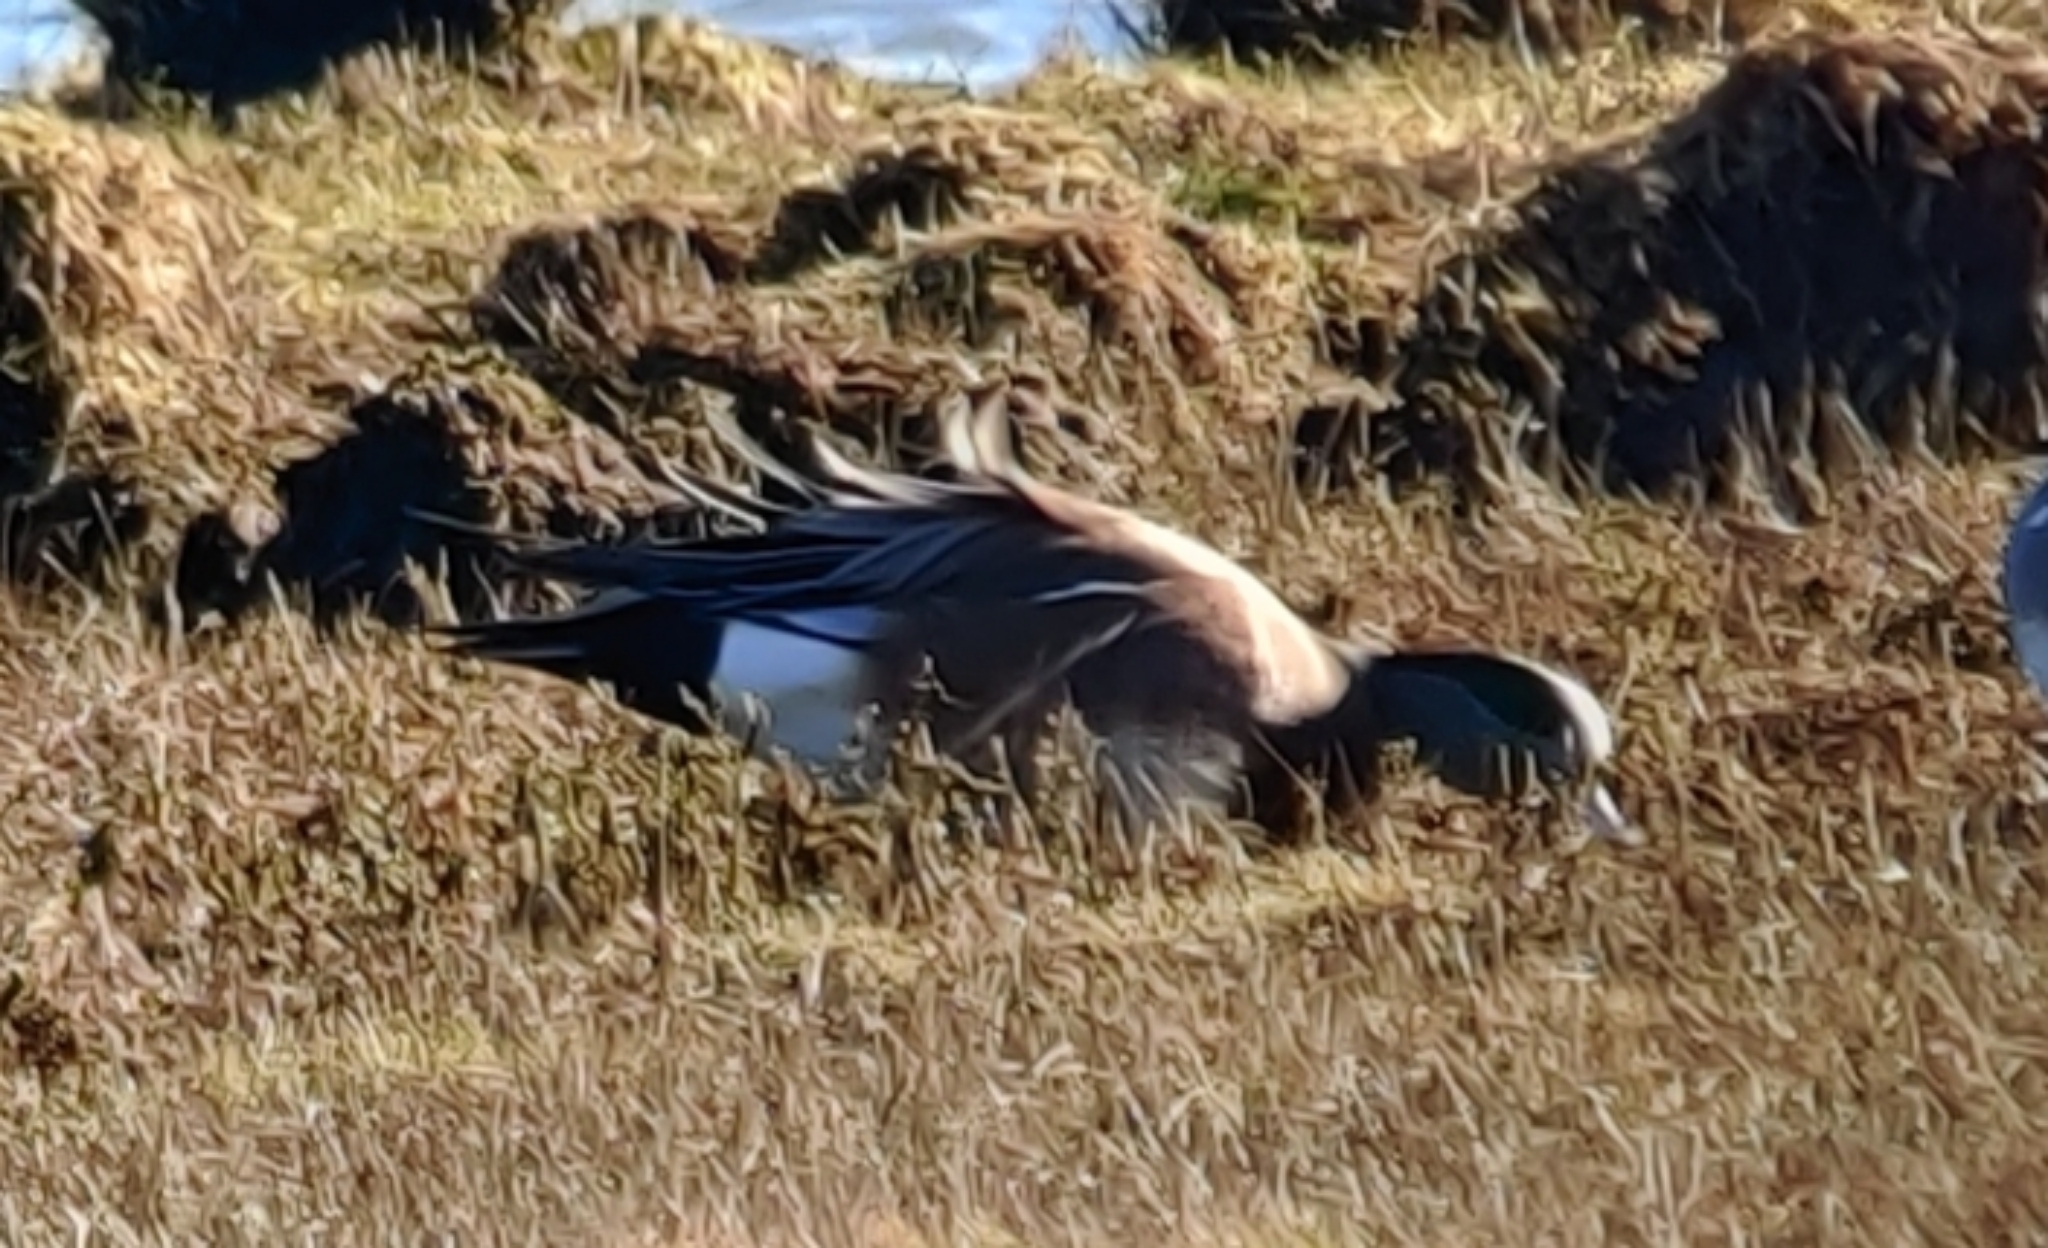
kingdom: Animalia
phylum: Chordata
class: Aves
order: Anseriformes
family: Anatidae
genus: Mareca
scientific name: Mareca americana
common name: American wigeon
